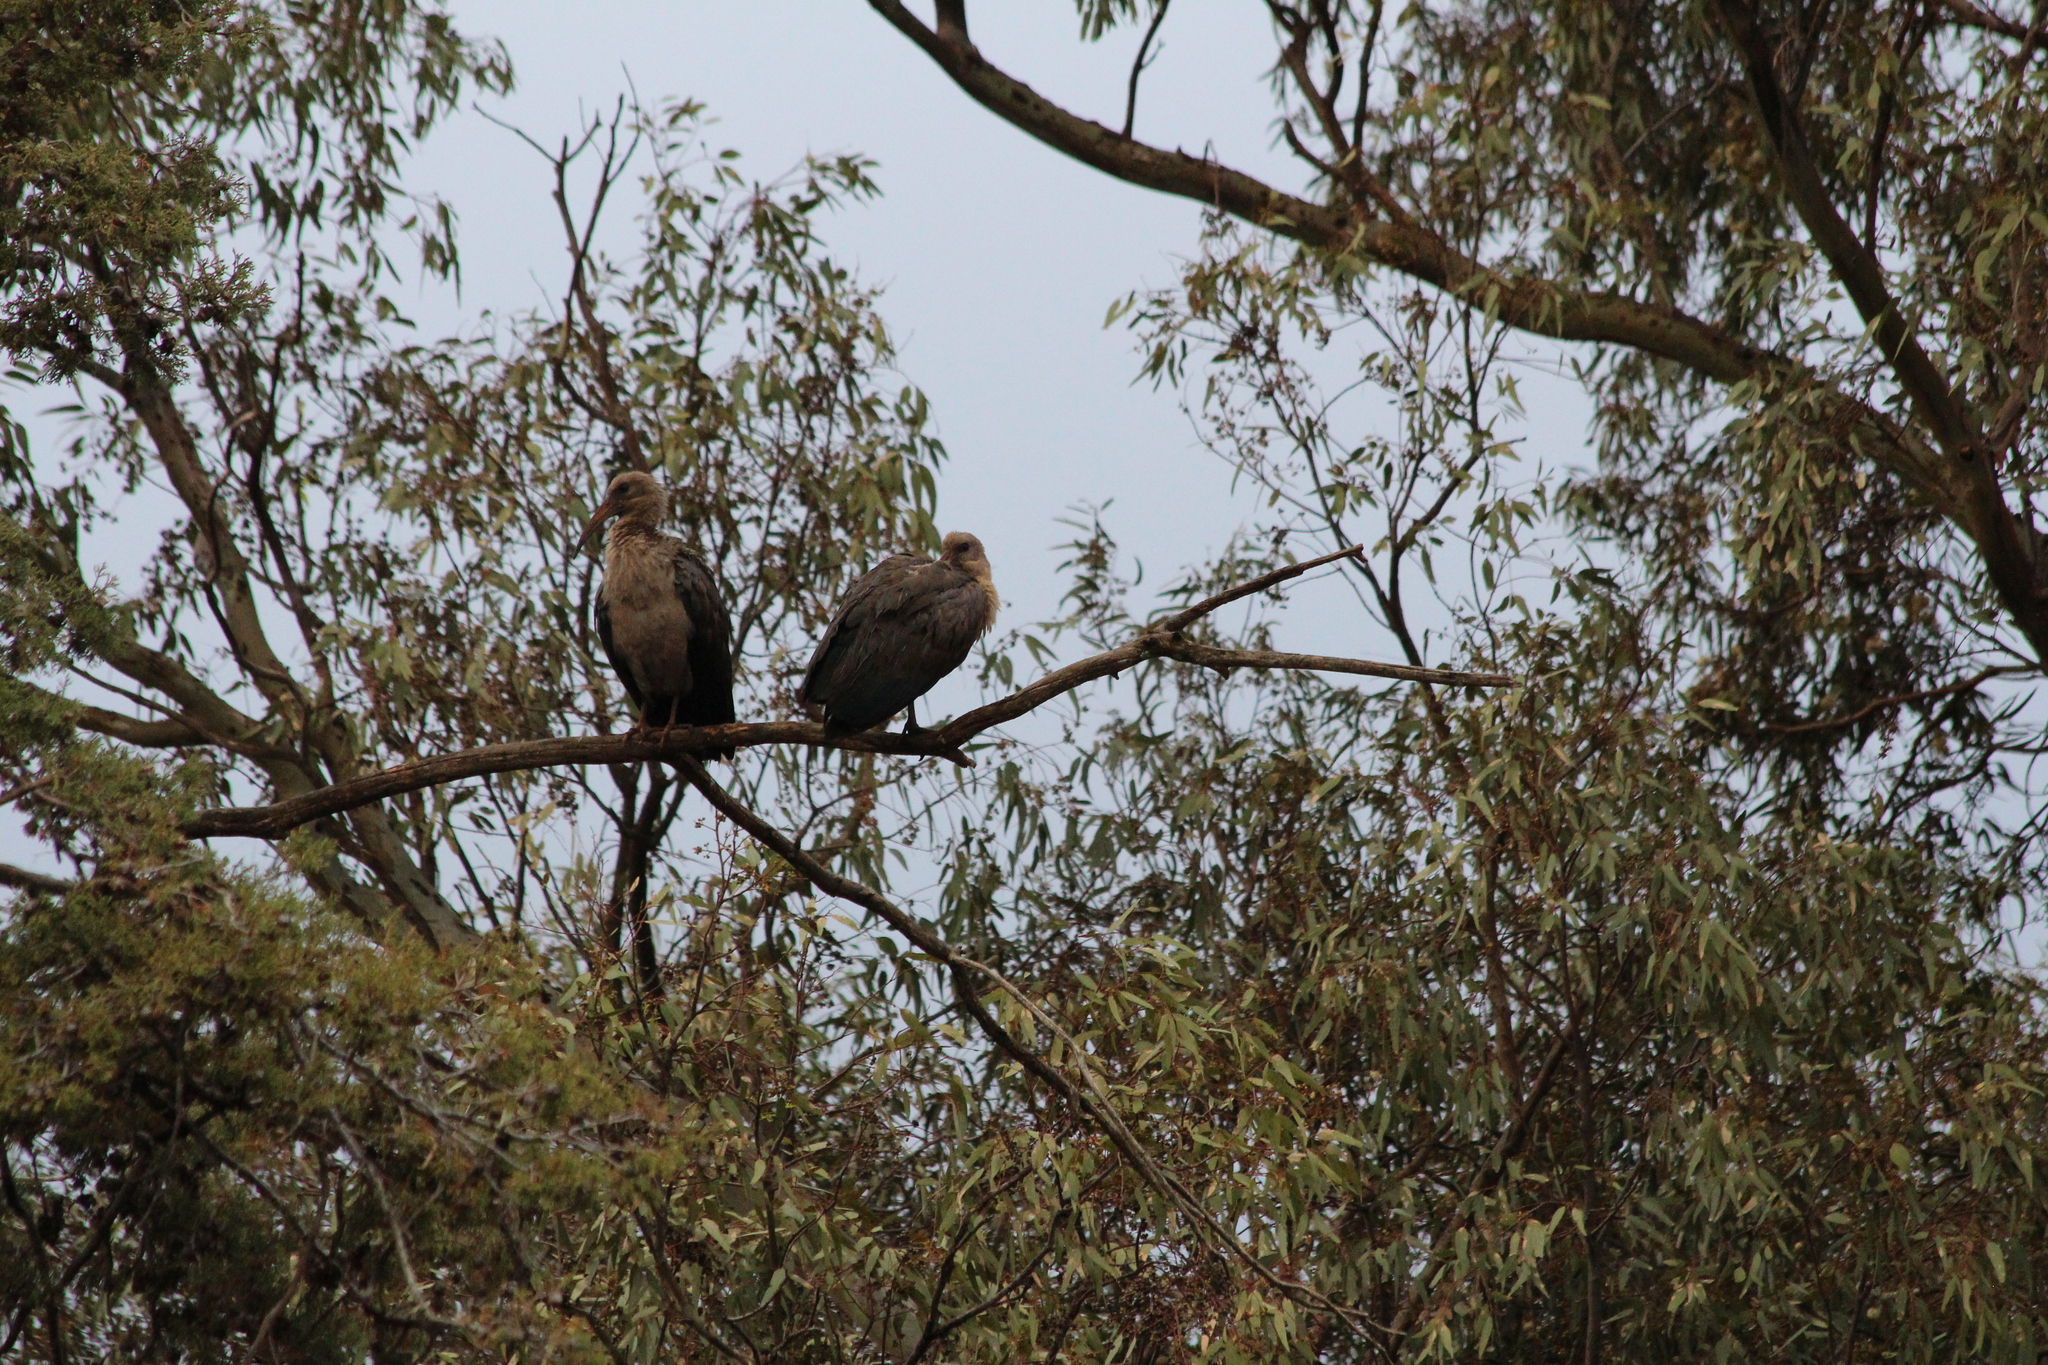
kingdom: Animalia
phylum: Chordata
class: Aves
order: Pelecaniformes
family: Threskiornithidae
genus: Bostrychia
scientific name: Bostrychia hagedash
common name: Hadada ibis
